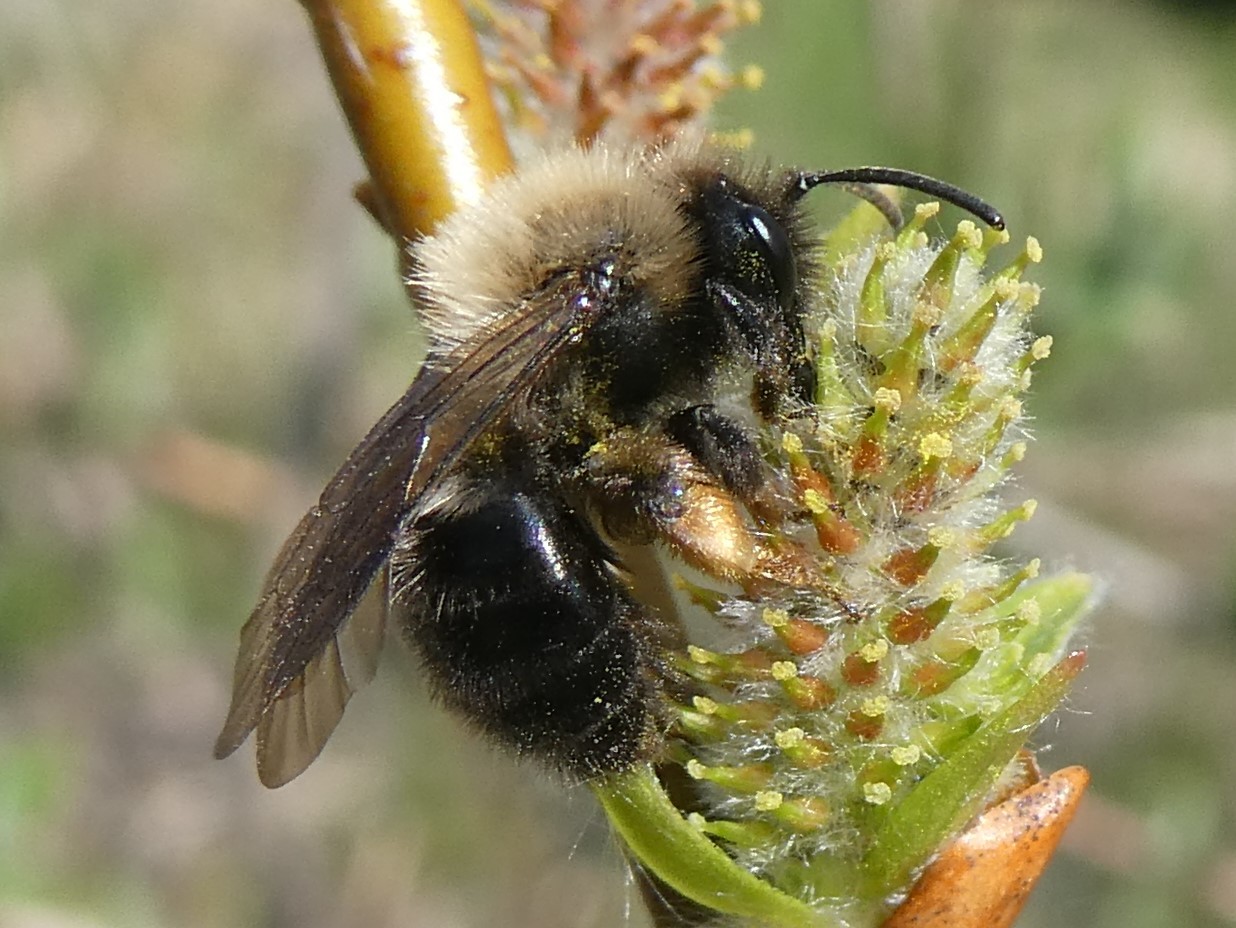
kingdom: Animalia
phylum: Arthropoda
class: Insecta
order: Hymenoptera
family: Andrenidae
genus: Andrena
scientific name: Andrena clarkella
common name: Clarke's mining bee
